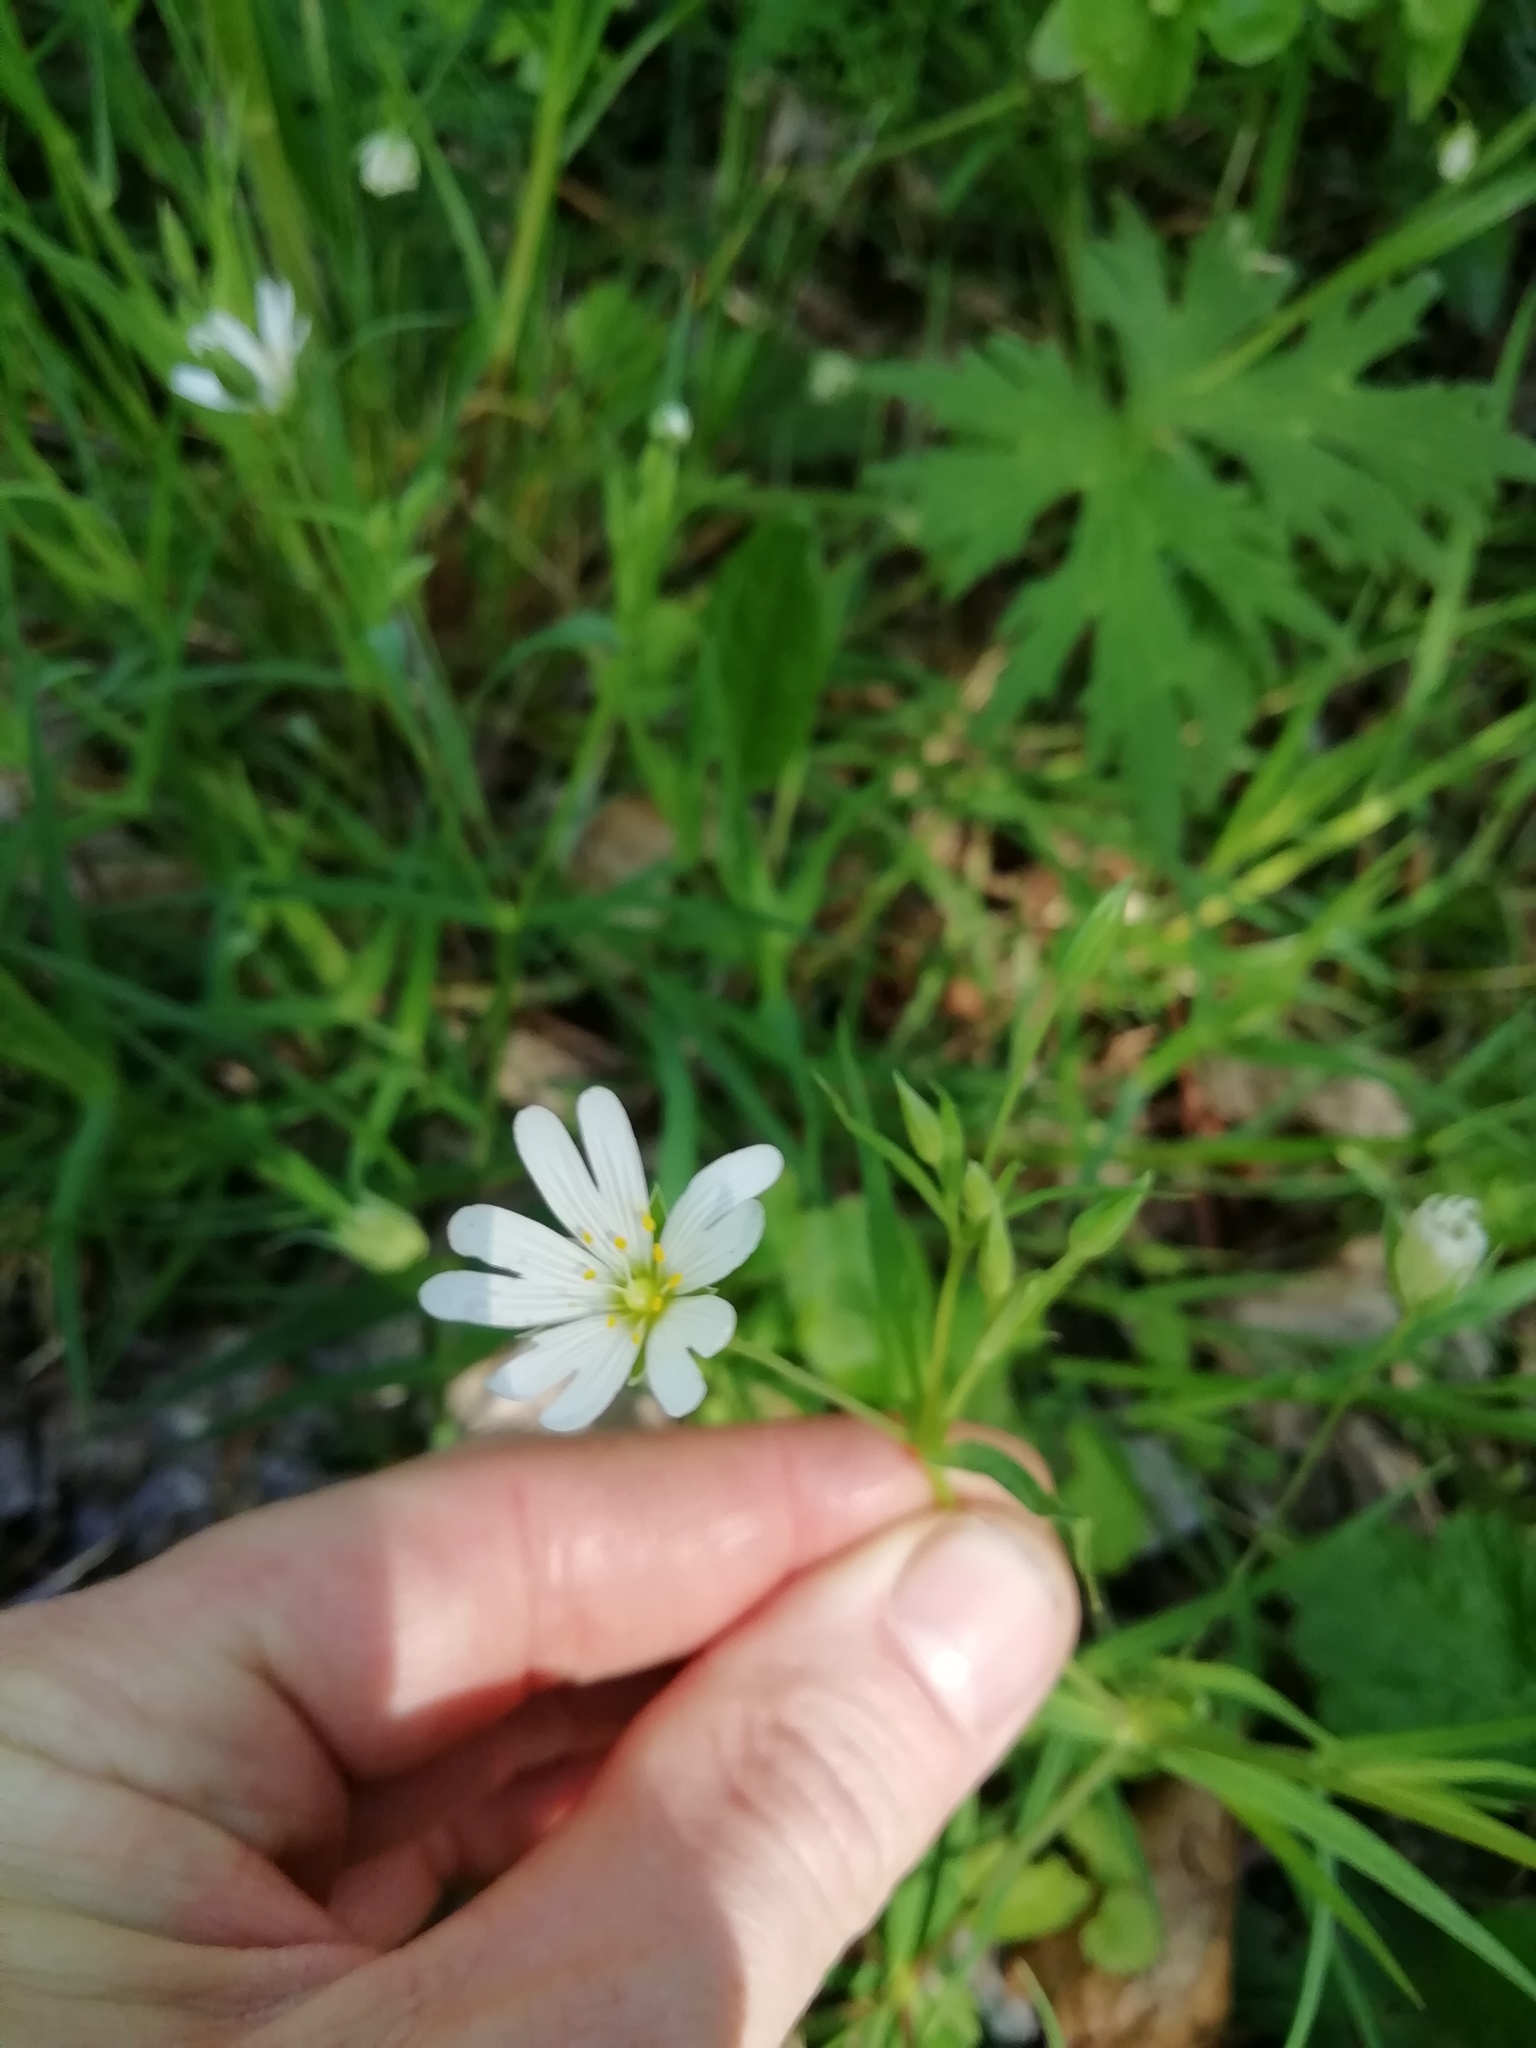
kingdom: Plantae
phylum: Tracheophyta
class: Magnoliopsida
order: Caryophyllales
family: Caryophyllaceae
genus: Rabelera
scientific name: Rabelera holostea
